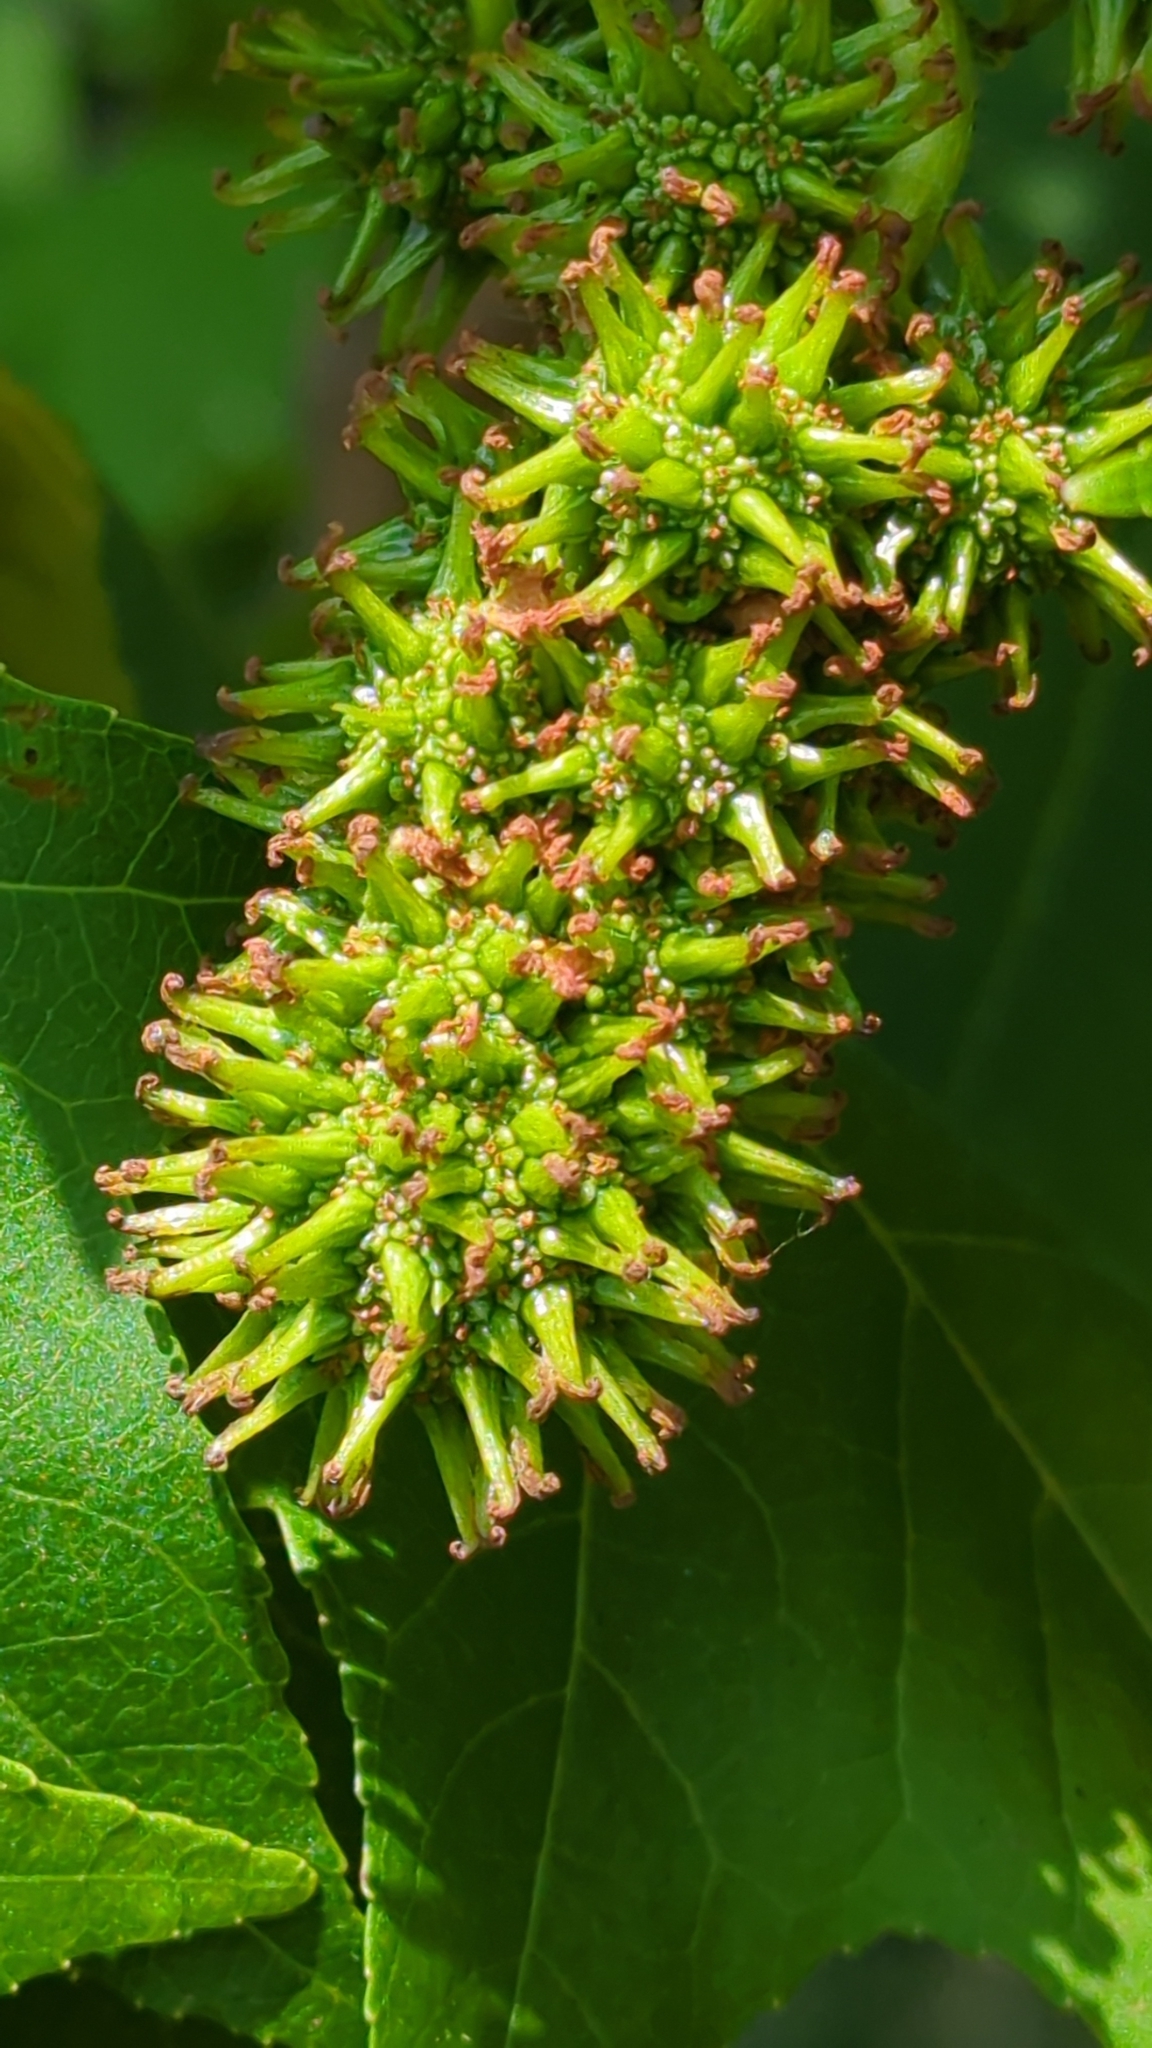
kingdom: Plantae
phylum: Tracheophyta
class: Magnoliopsida
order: Saxifragales
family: Altingiaceae
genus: Liquidambar
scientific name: Liquidambar styraciflua
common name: Sweet gum
